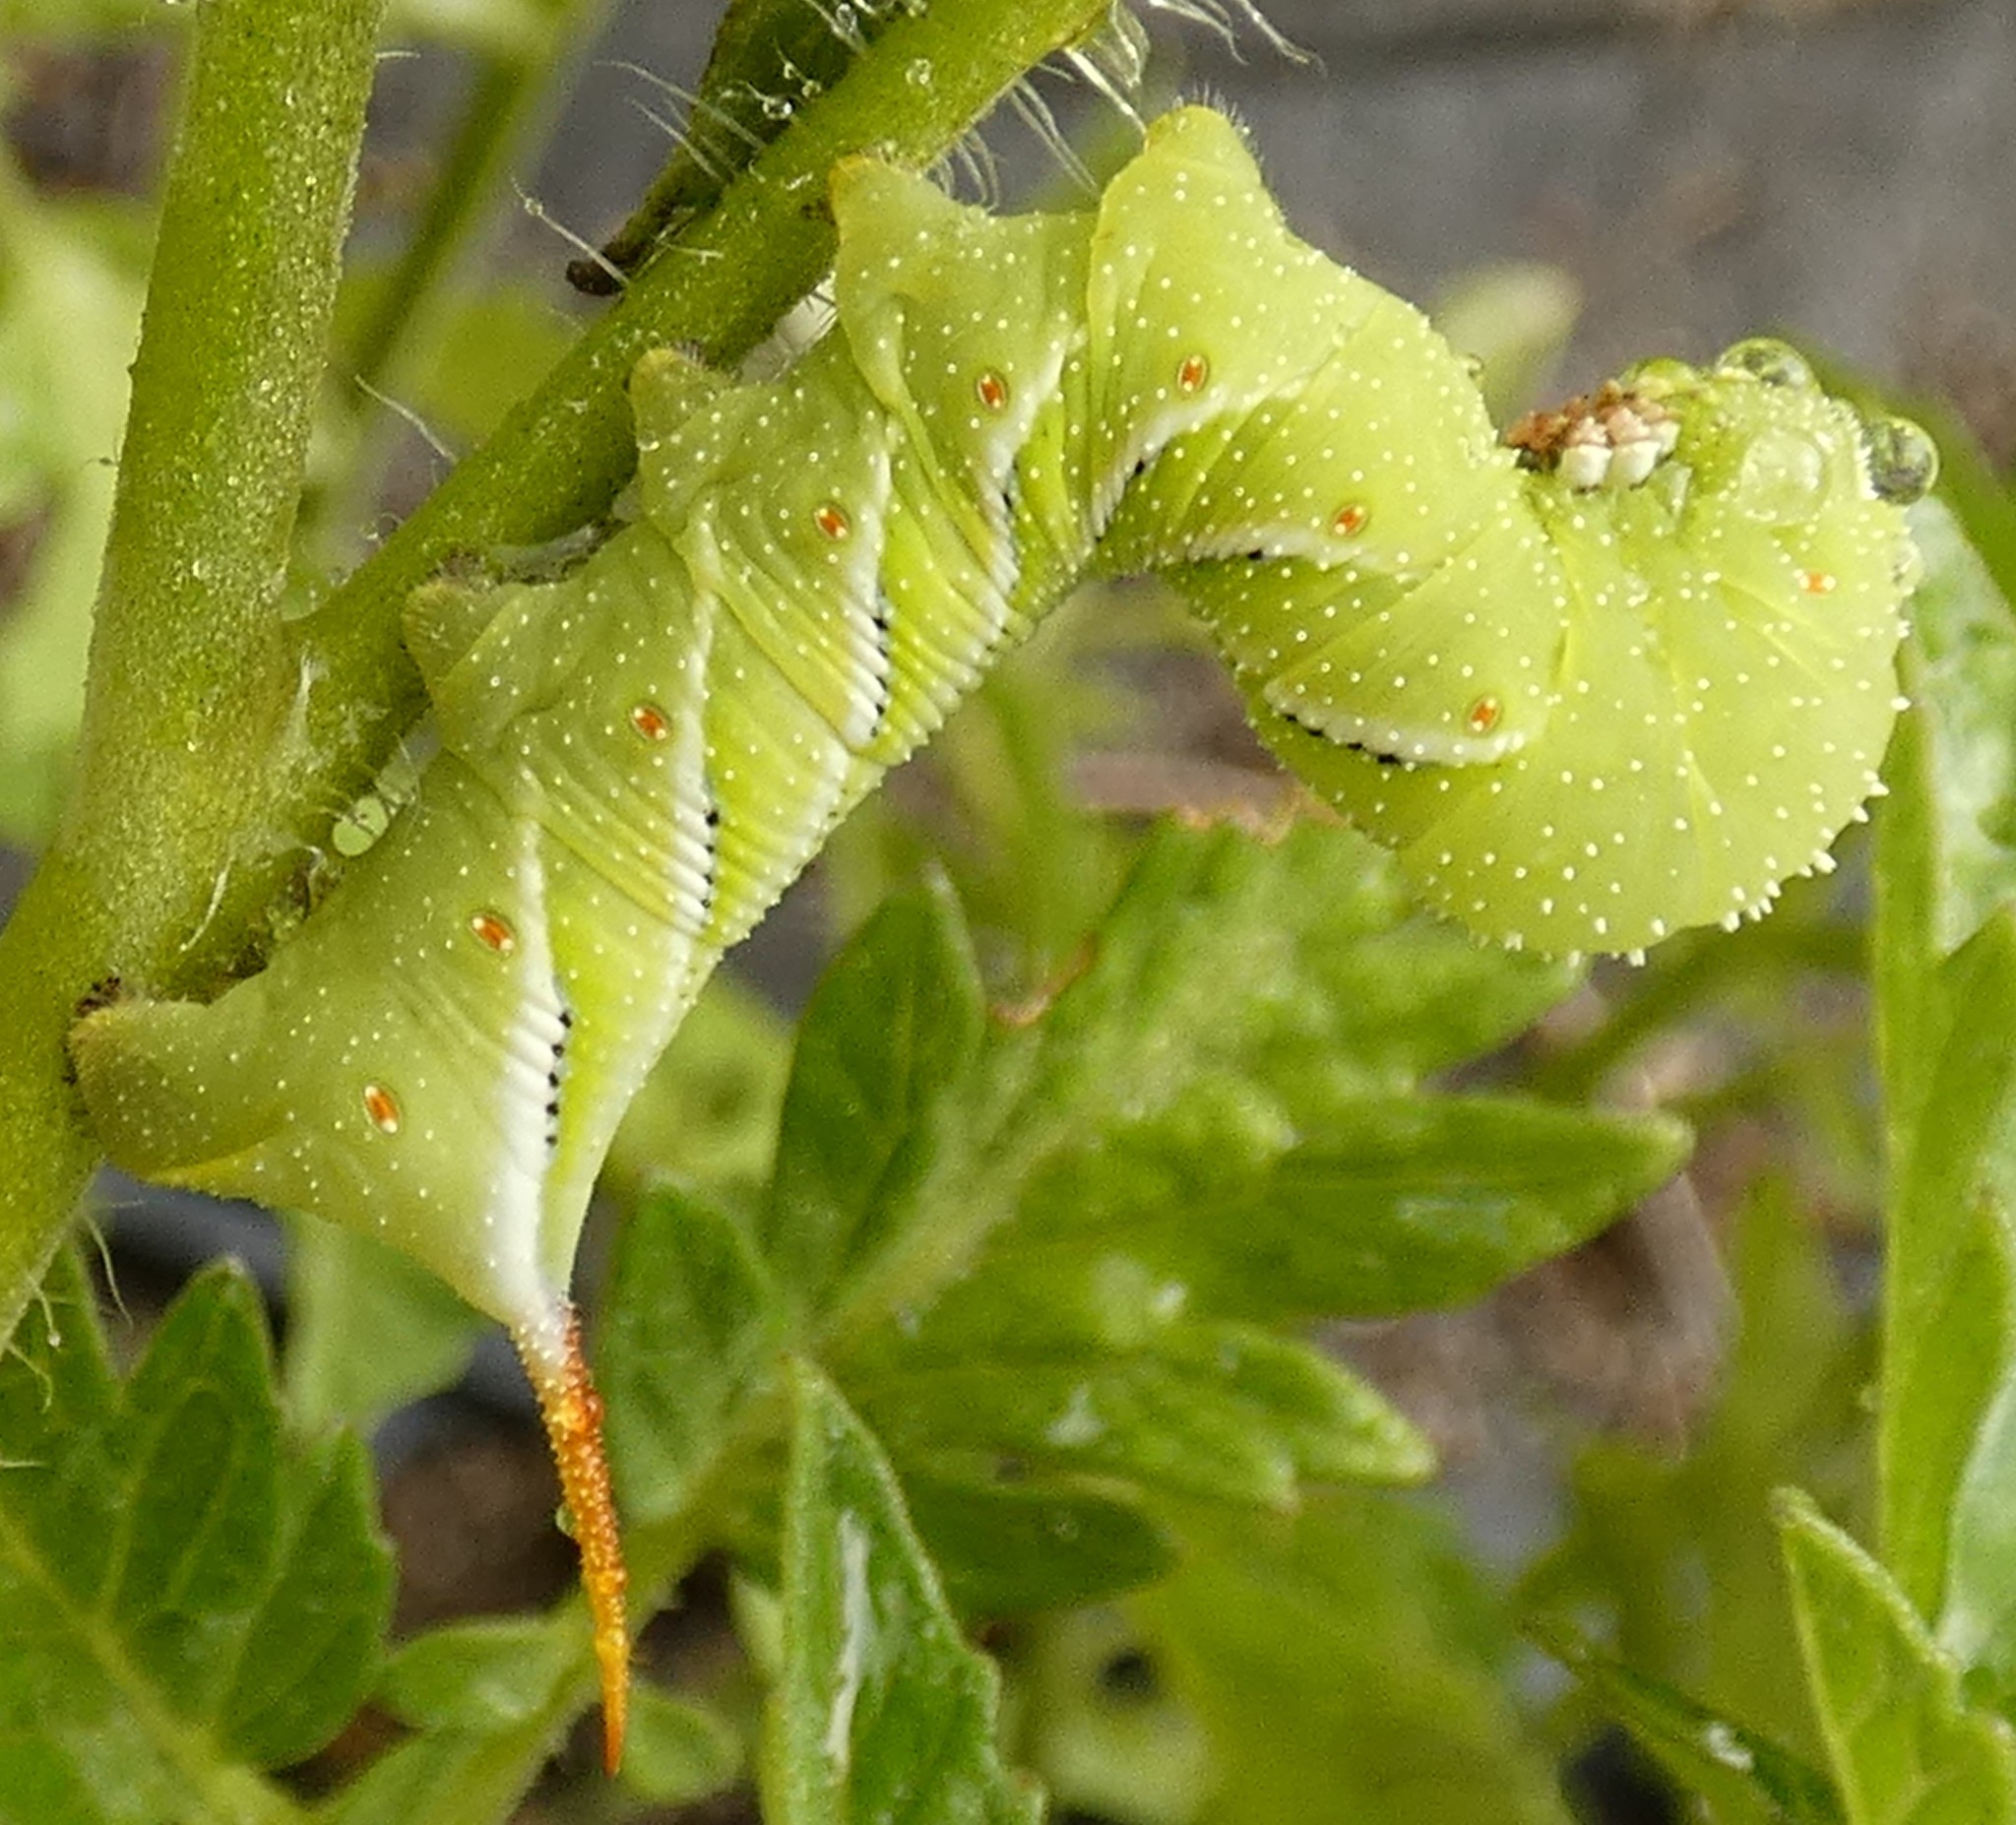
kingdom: Animalia
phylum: Arthropoda
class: Insecta
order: Lepidoptera
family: Sphingidae
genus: Manduca
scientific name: Manduca sexta
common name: Carolina sphinx
